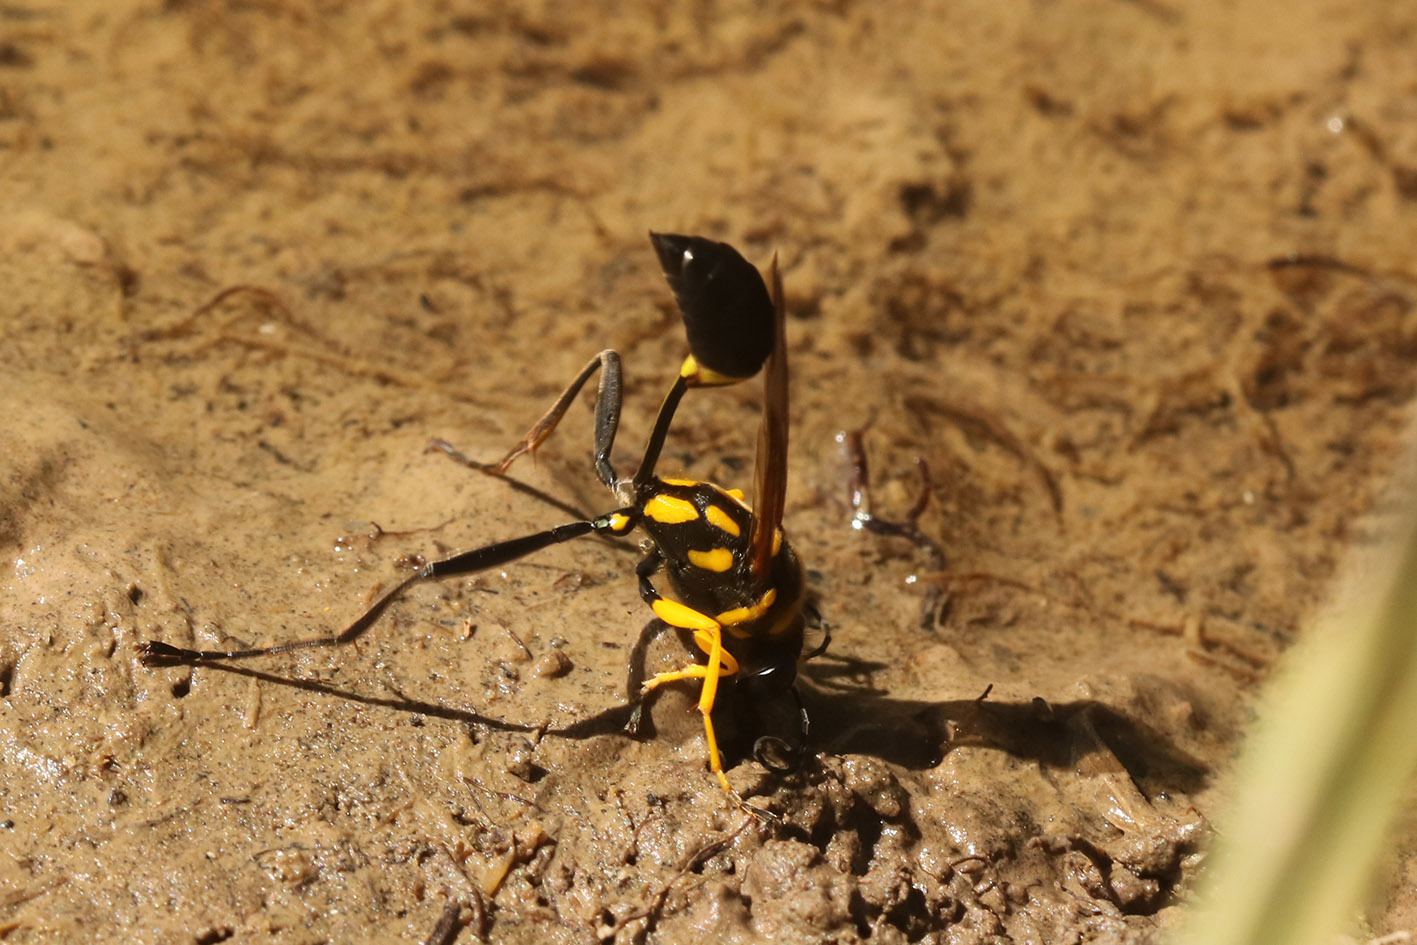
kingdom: Animalia
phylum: Arthropoda
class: Insecta
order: Hymenoptera
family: Sphecidae
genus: Sceliphron
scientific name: Sceliphron fistularium
